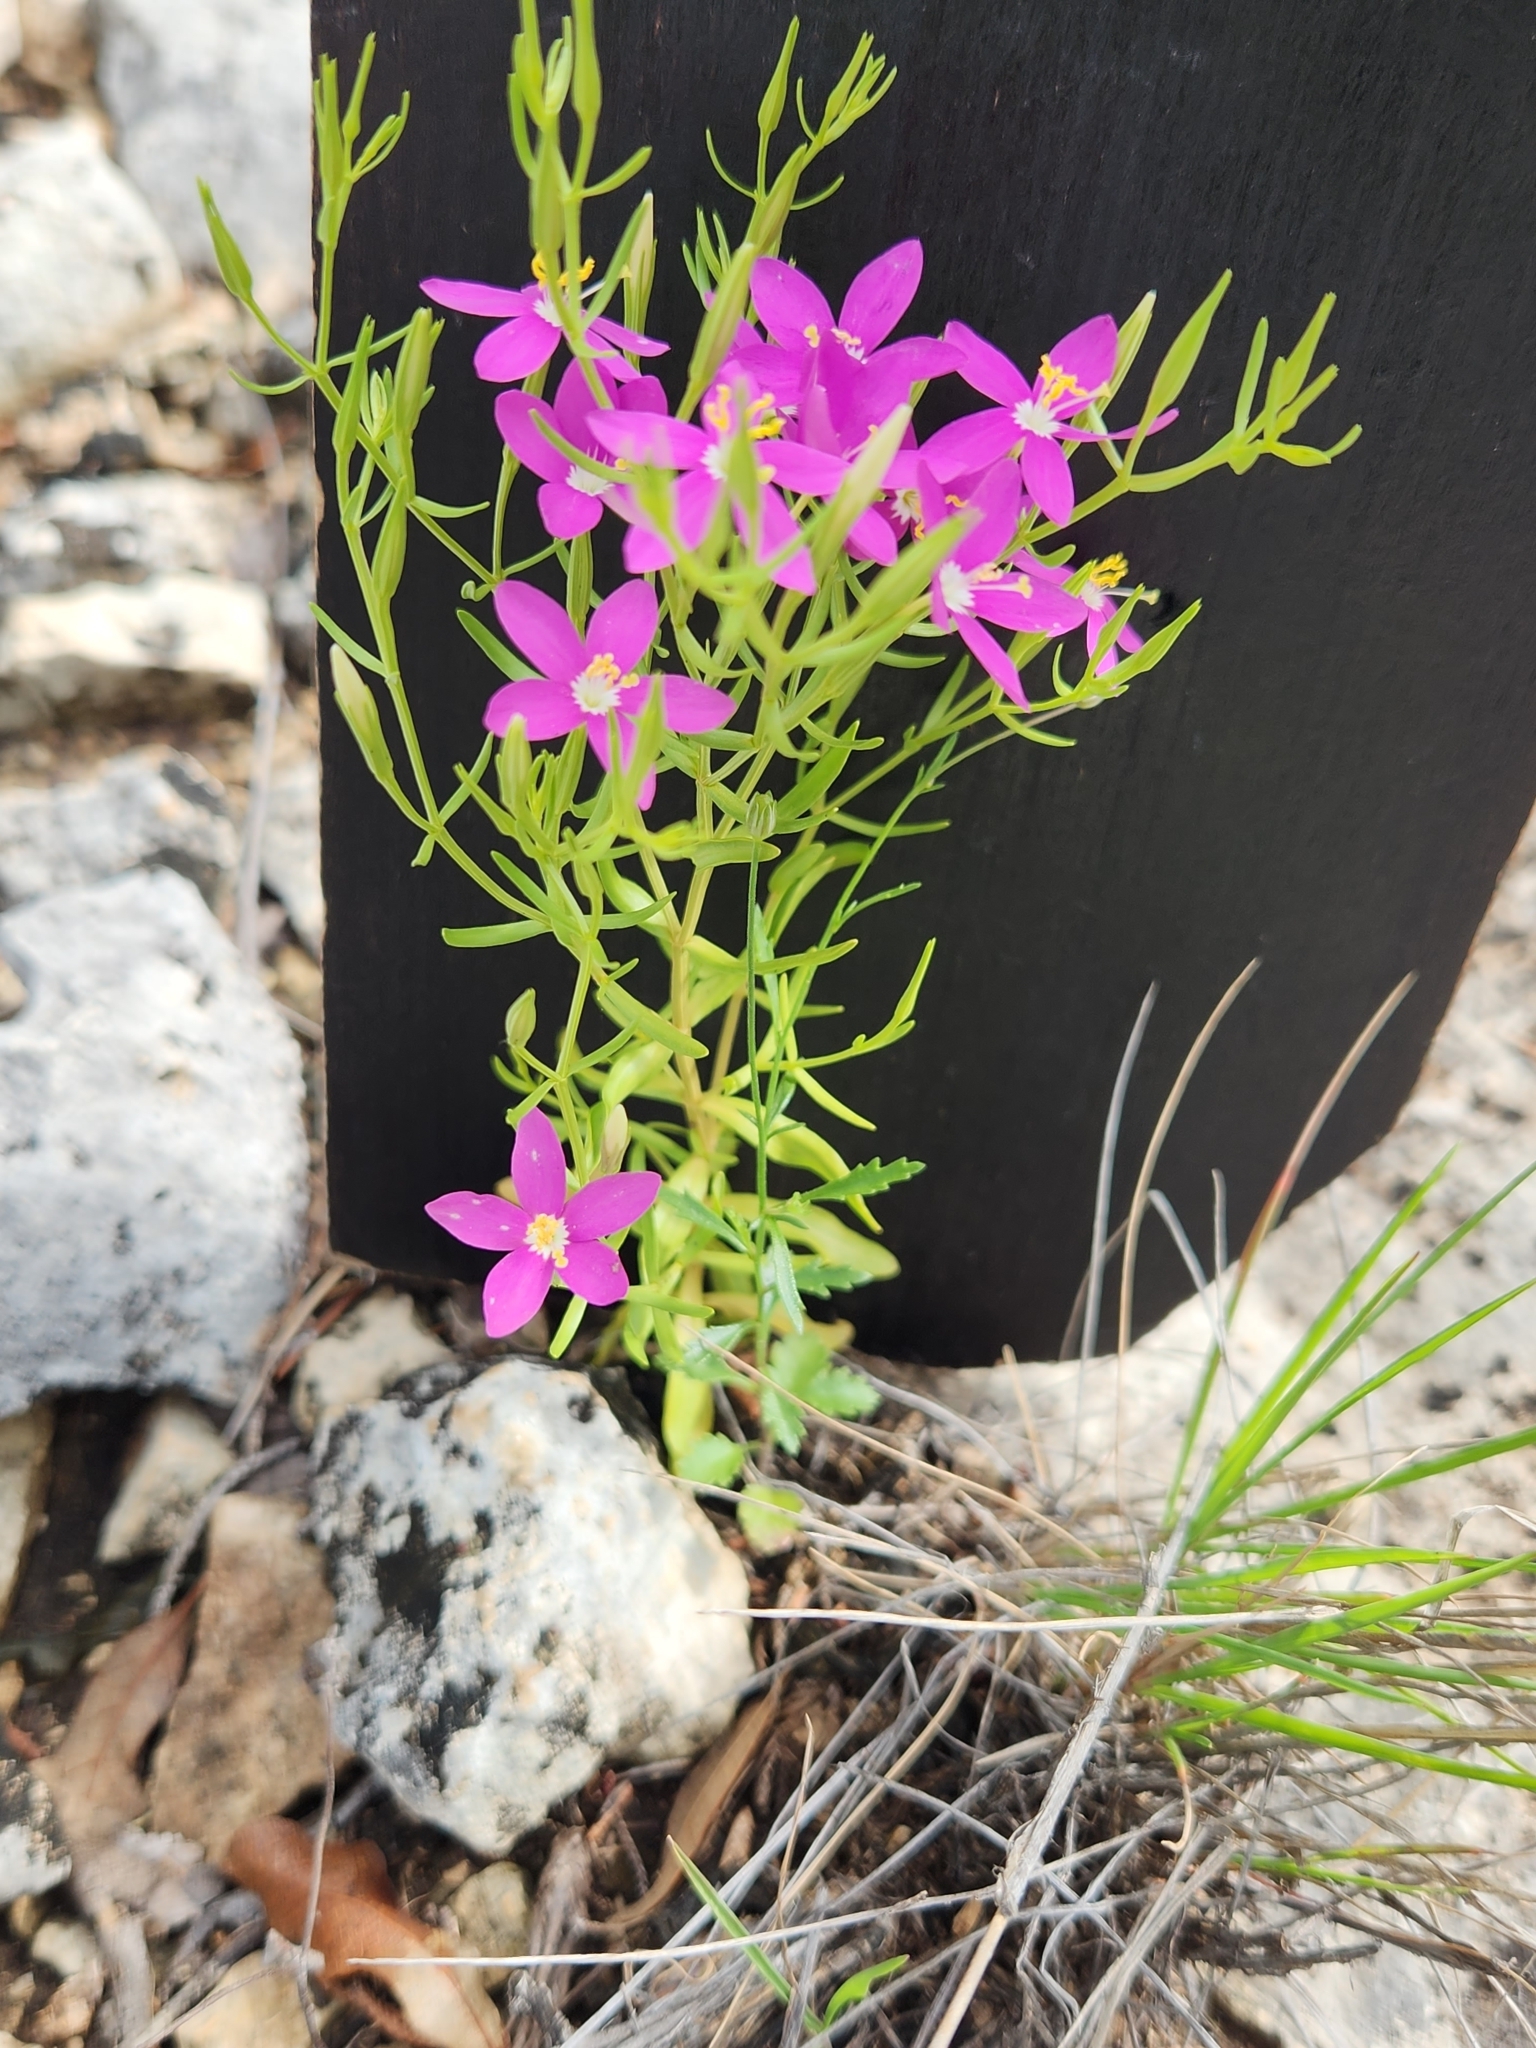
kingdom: Plantae
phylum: Tracheophyta
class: Magnoliopsida
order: Gentianales
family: Gentianaceae
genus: Zeltnera
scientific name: Zeltnera calycosa
